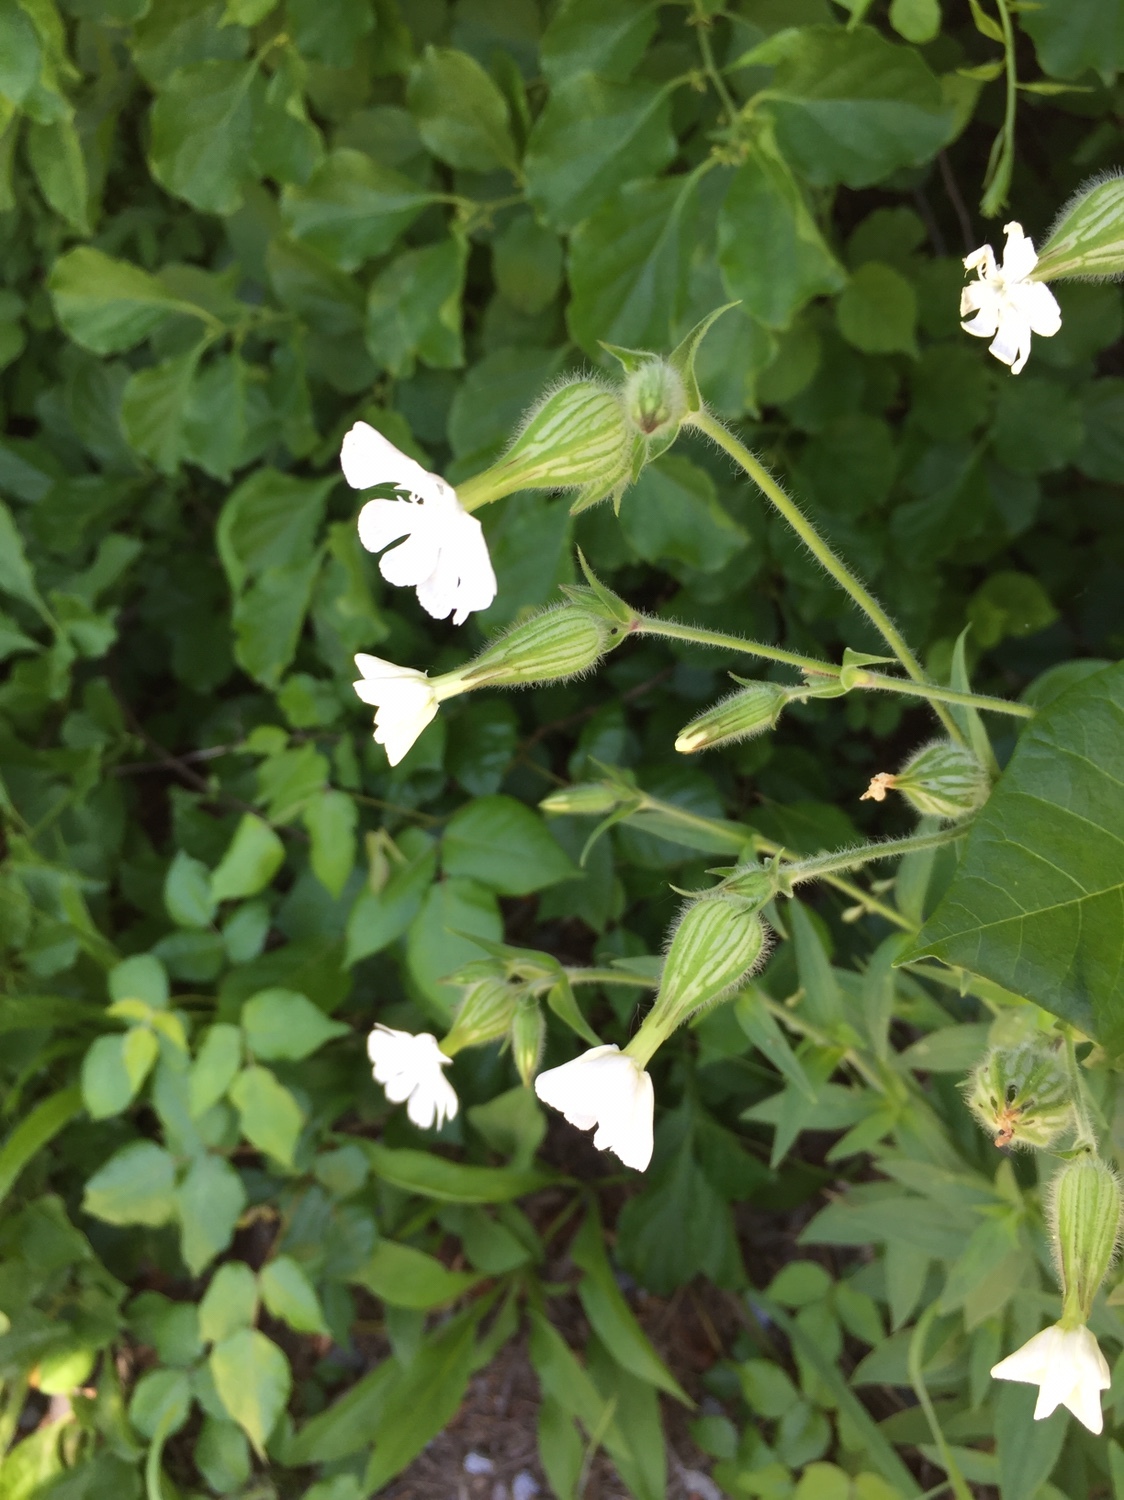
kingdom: Plantae
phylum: Tracheophyta
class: Magnoliopsida
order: Caryophyllales
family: Caryophyllaceae
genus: Silene
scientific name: Silene latifolia
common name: White campion
